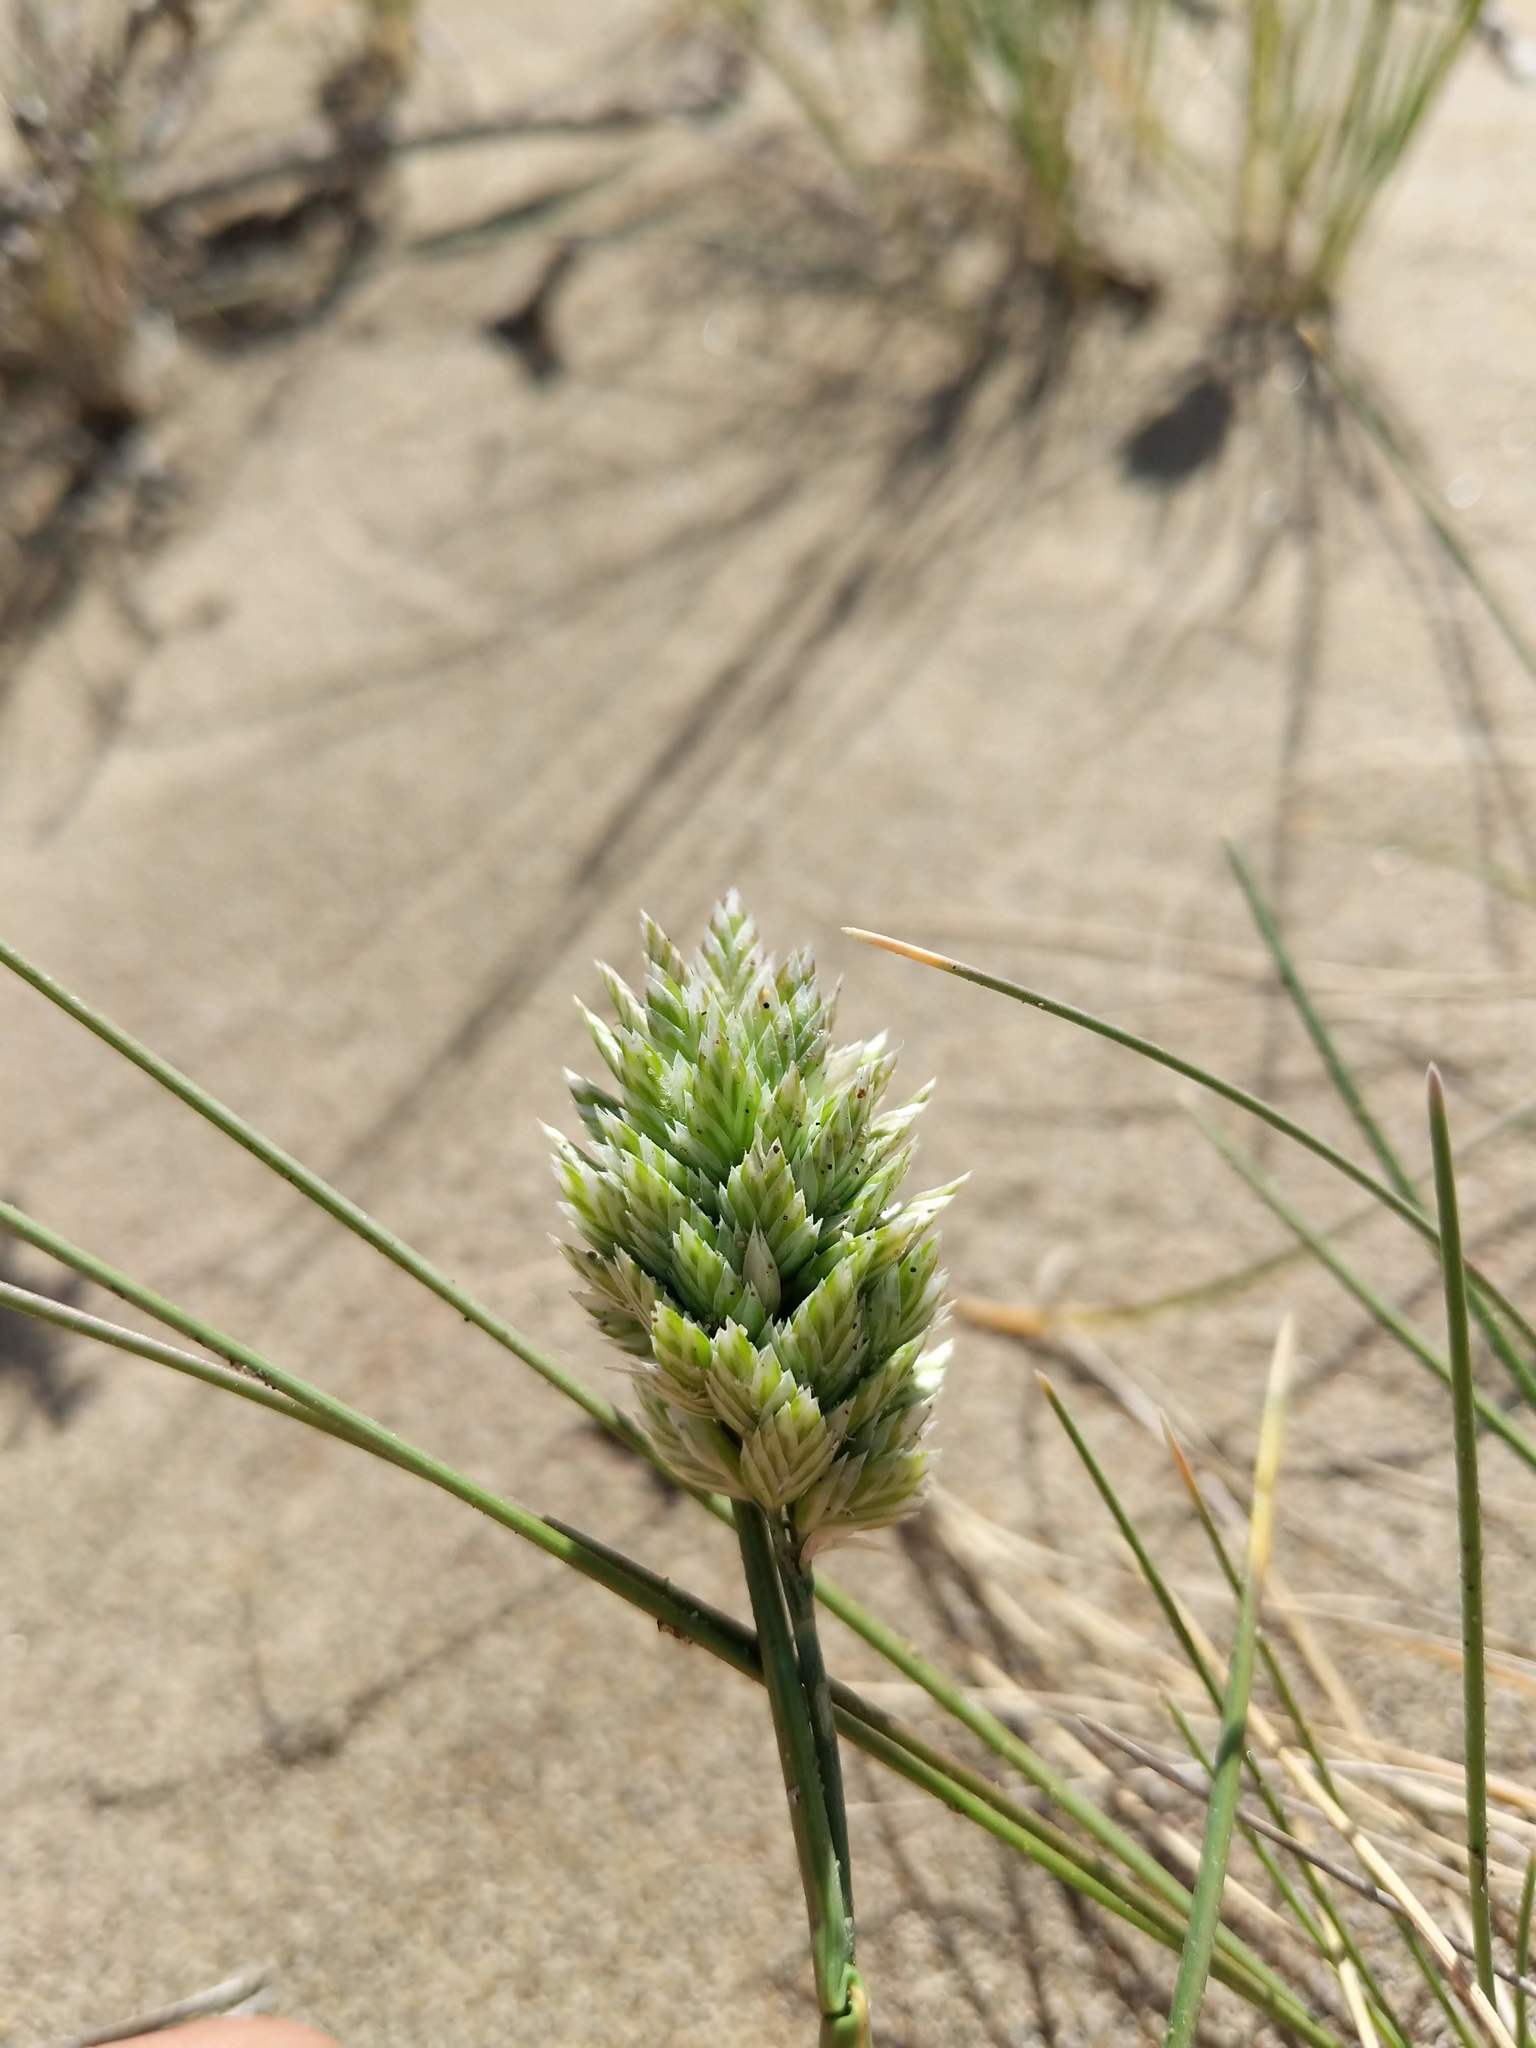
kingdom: Plantae
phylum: Tracheophyta
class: Liliopsida
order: Poales
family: Poaceae
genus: Poa
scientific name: Poa douglasii
